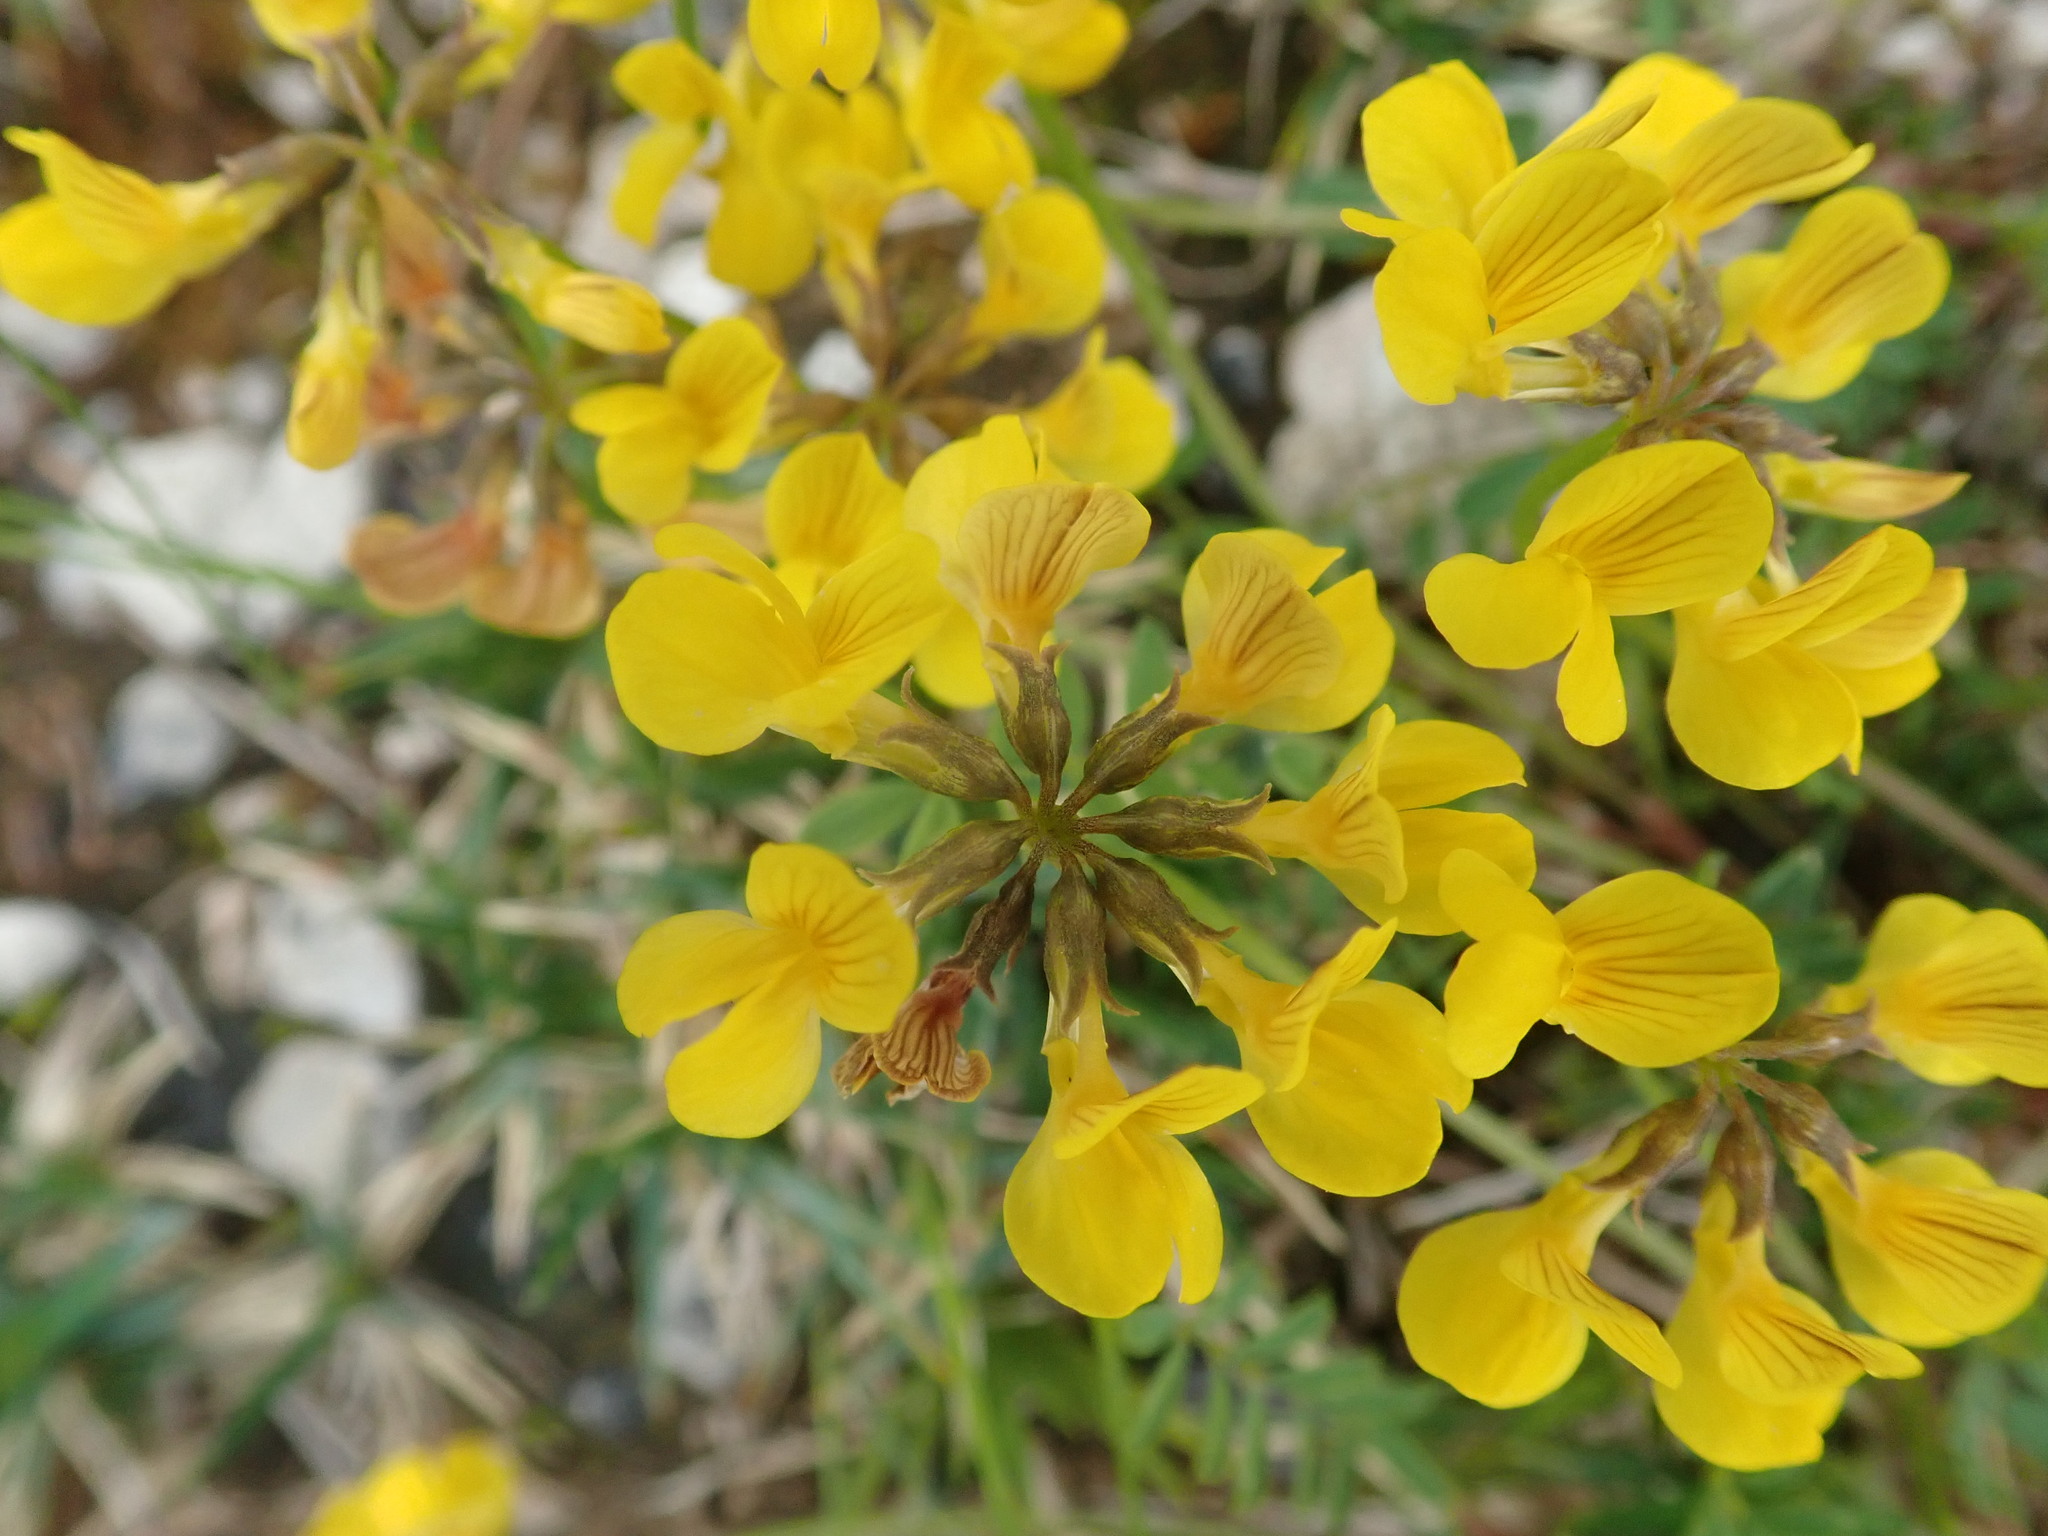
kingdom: Plantae
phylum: Tracheophyta
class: Magnoliopsida
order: Fabales
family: Fabaceae
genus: Hippocrepis
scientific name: Hippocrepis comosa
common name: Horseshoe vetch
